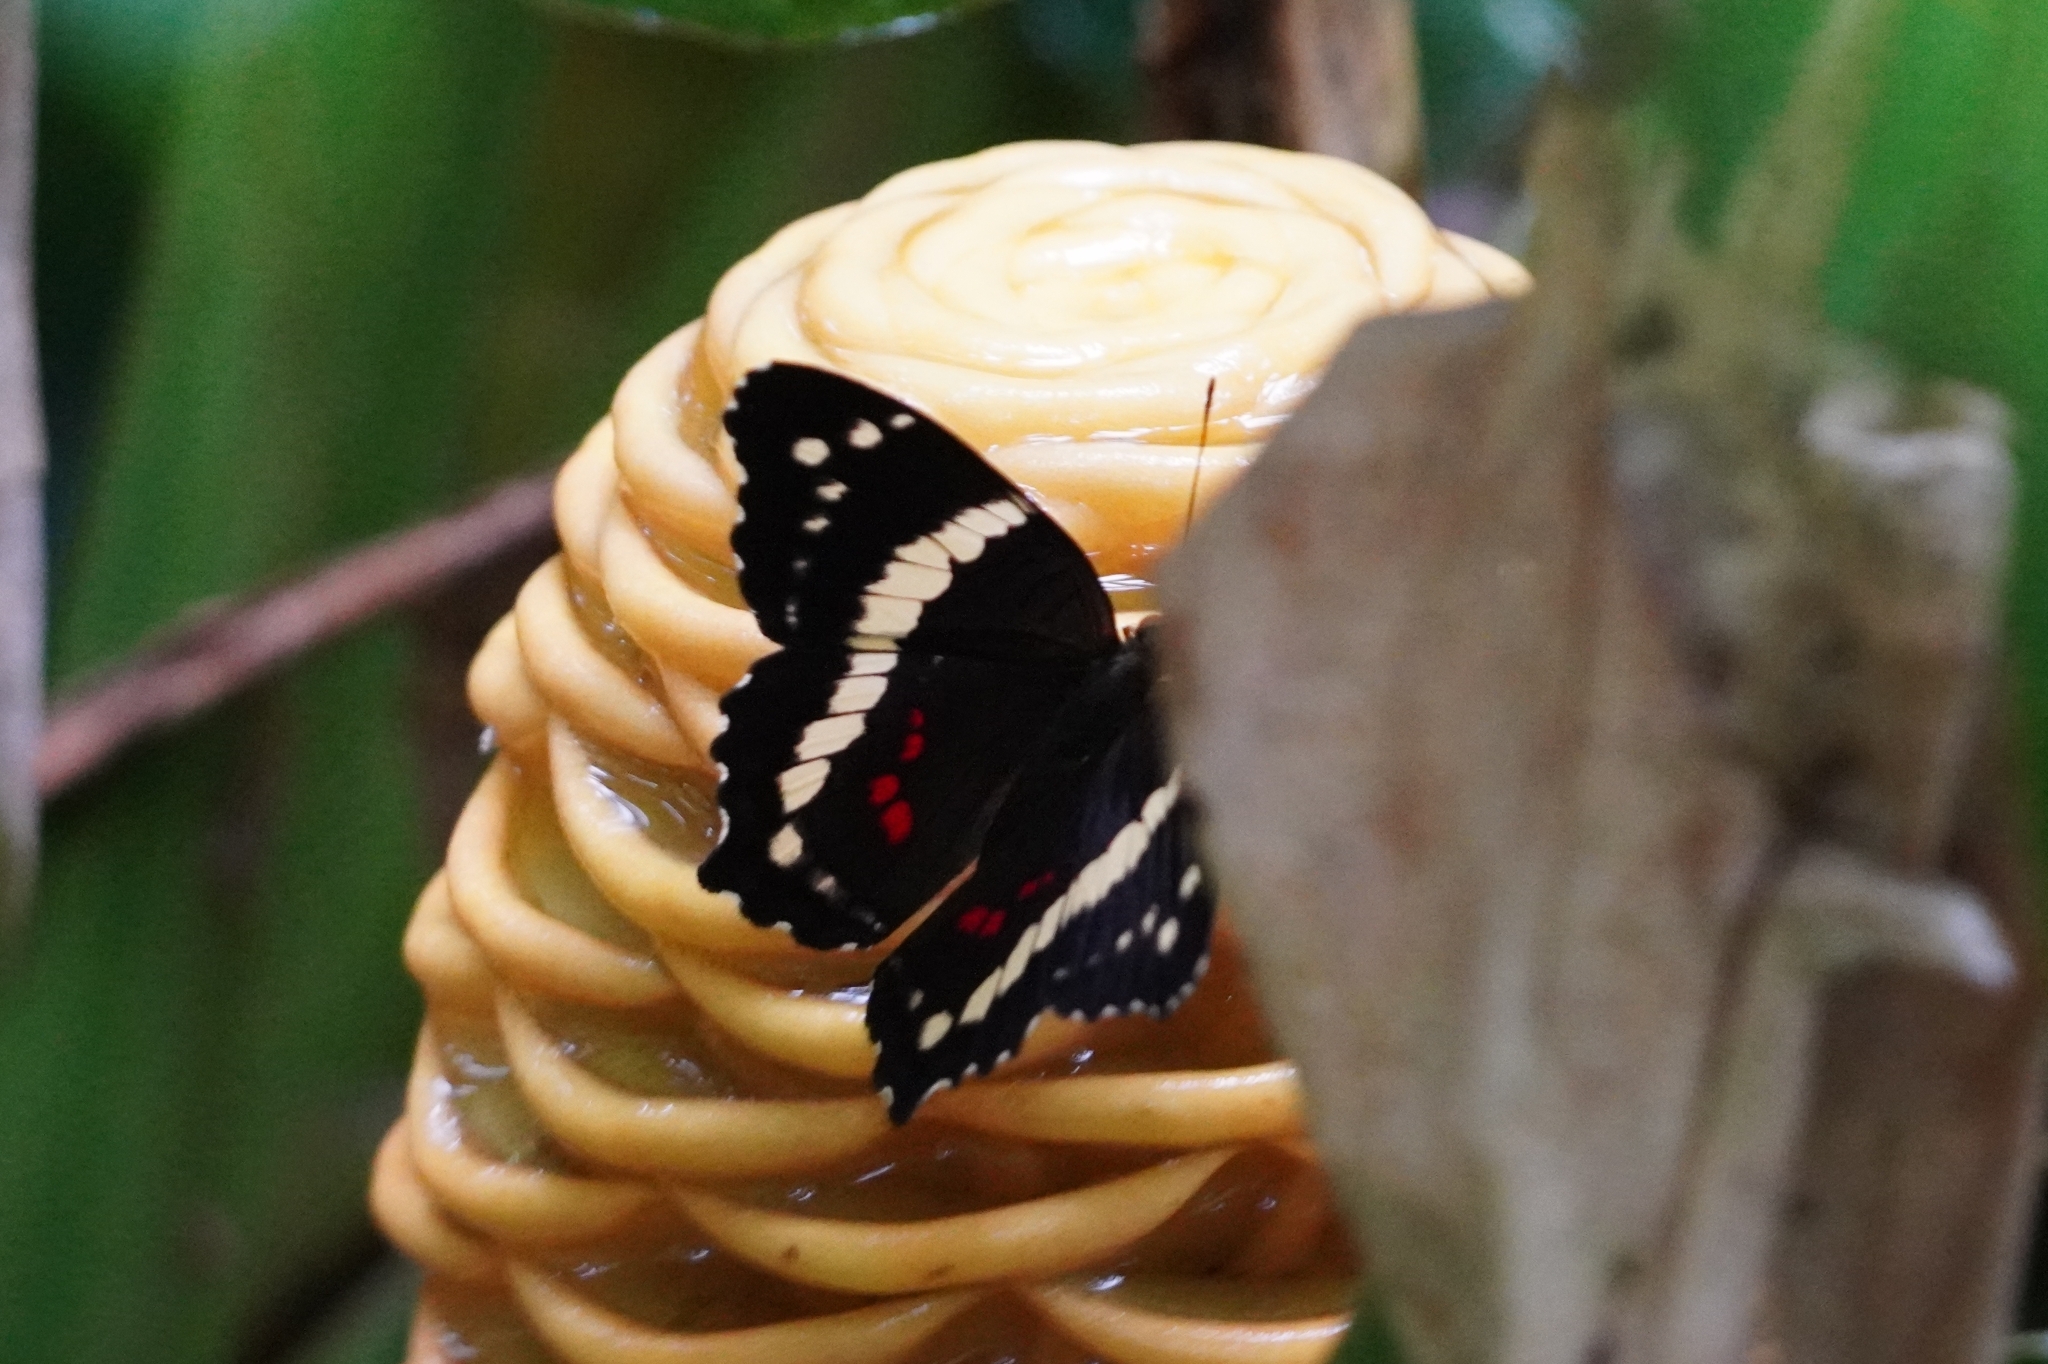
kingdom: Animalia
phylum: Arthropoda
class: Insecta
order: Lepidoptera
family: Nymphalidae
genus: Anartia
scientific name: Anartia fatima
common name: Banded peacock
